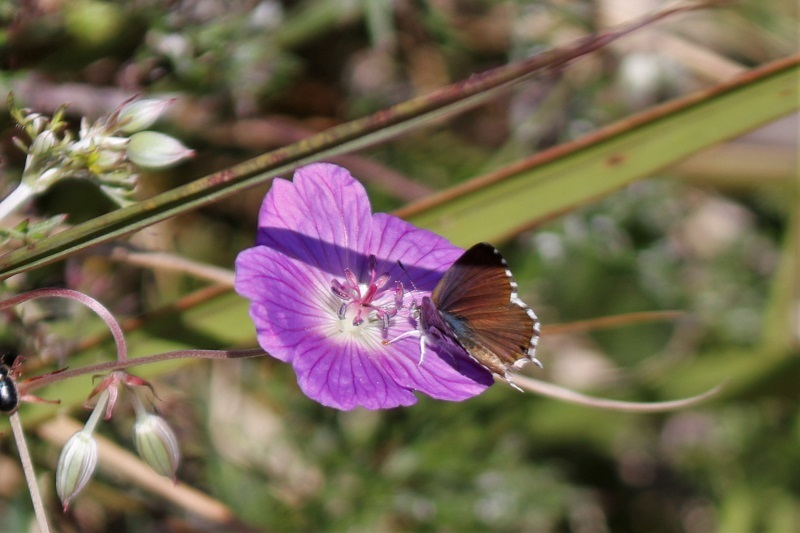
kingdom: Animalia
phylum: Arthropoda
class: Insecta
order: Lepidoptera
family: Lycaenidae
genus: Cacyreus
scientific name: Cacyreus fracta
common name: Water bronze
